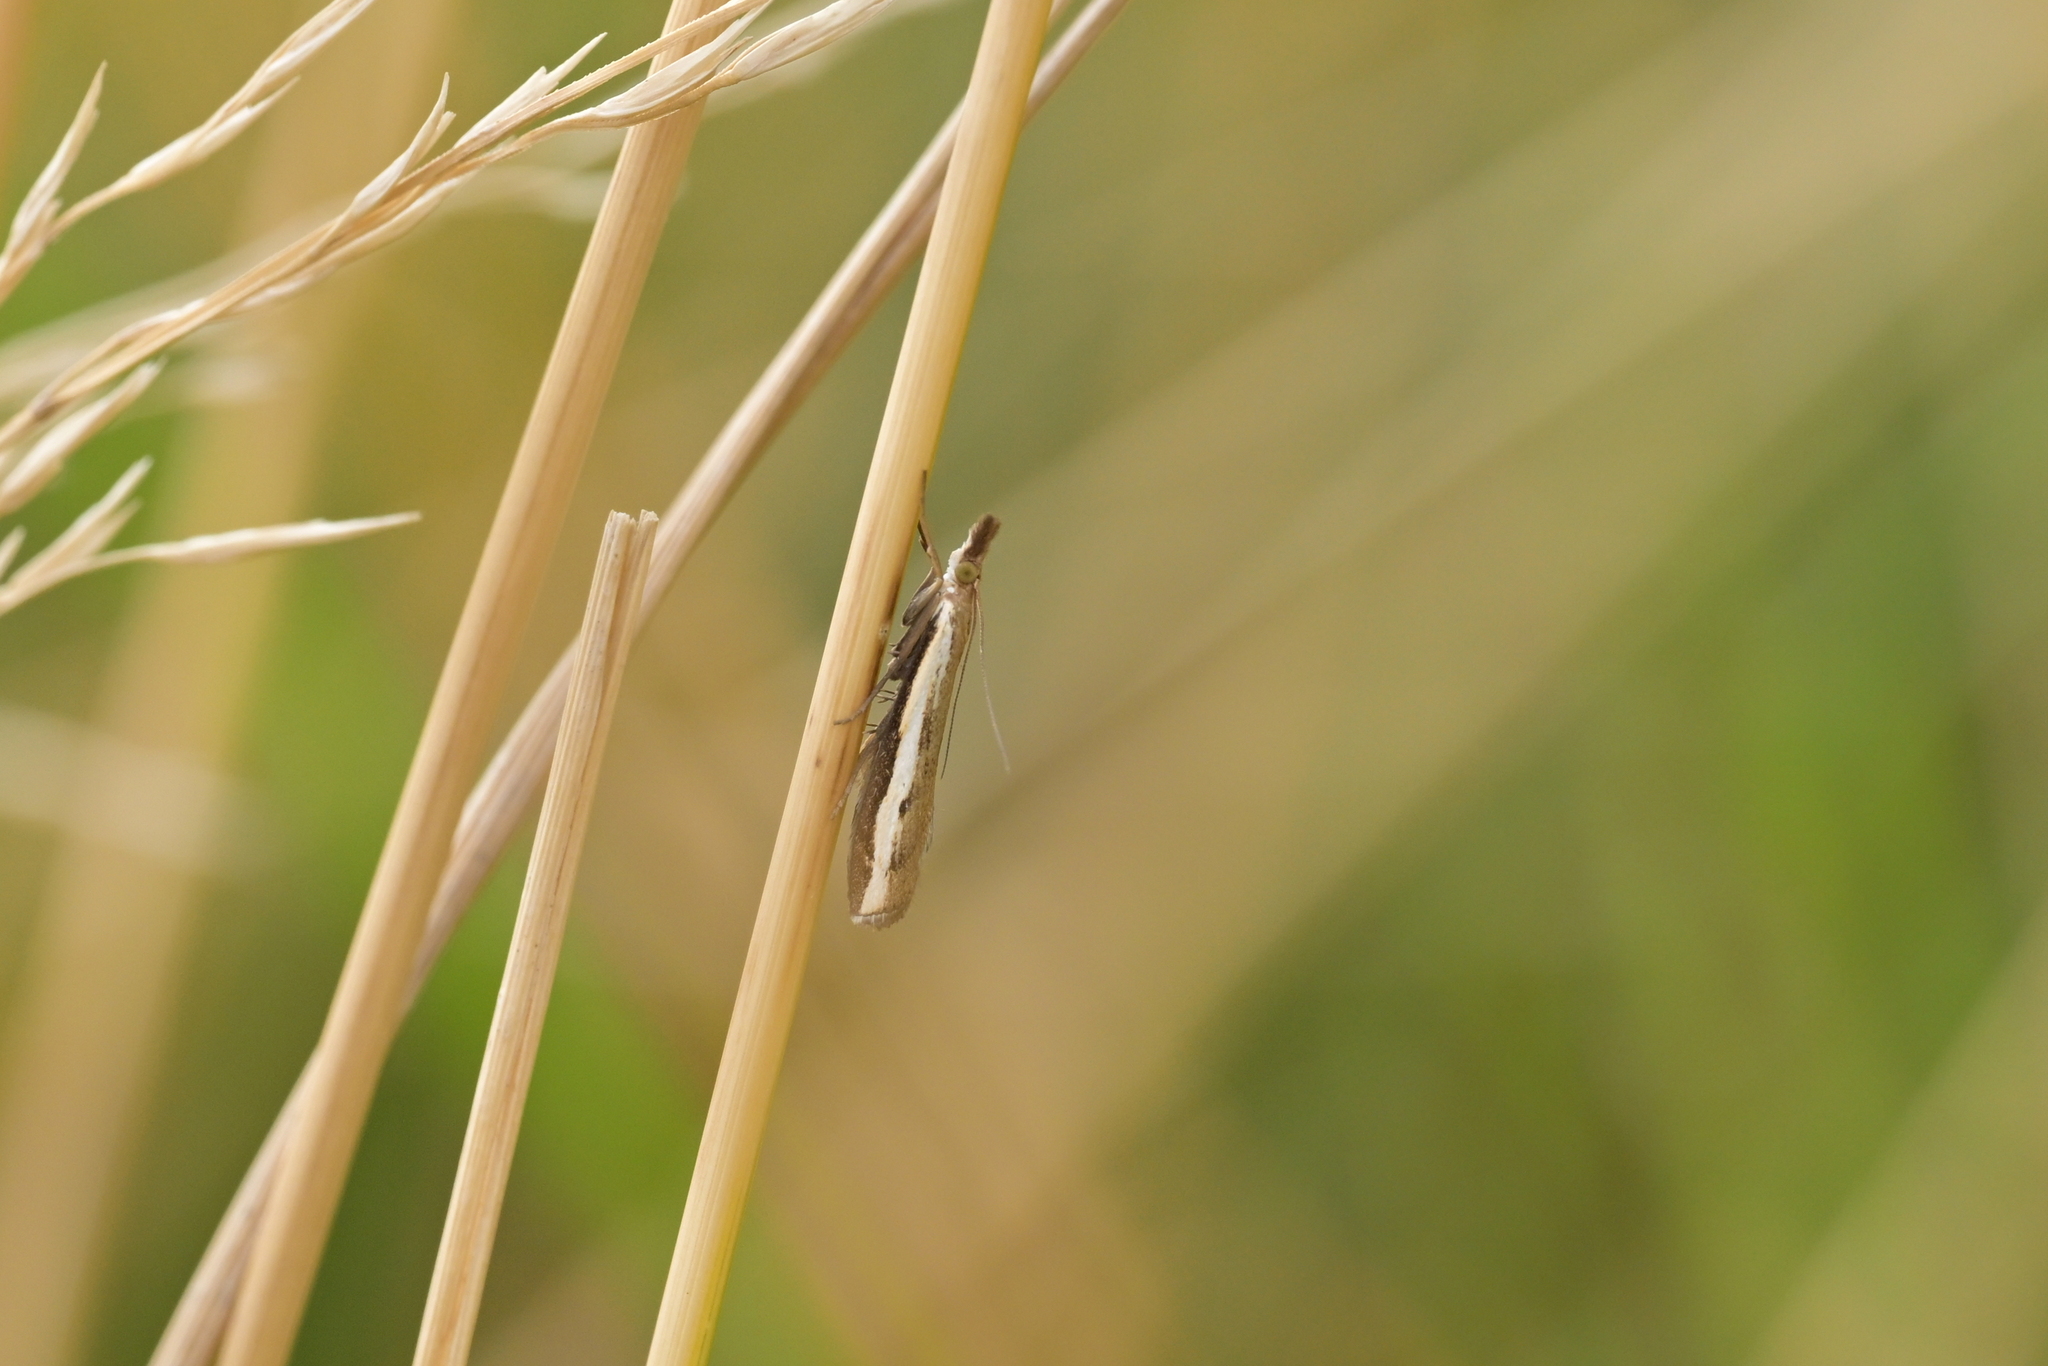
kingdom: Animalia
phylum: Arthropoda
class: Insecta
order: Lepidoptera
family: Crambidae
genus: Orocrambus
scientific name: Orocrambus flexuosellus
